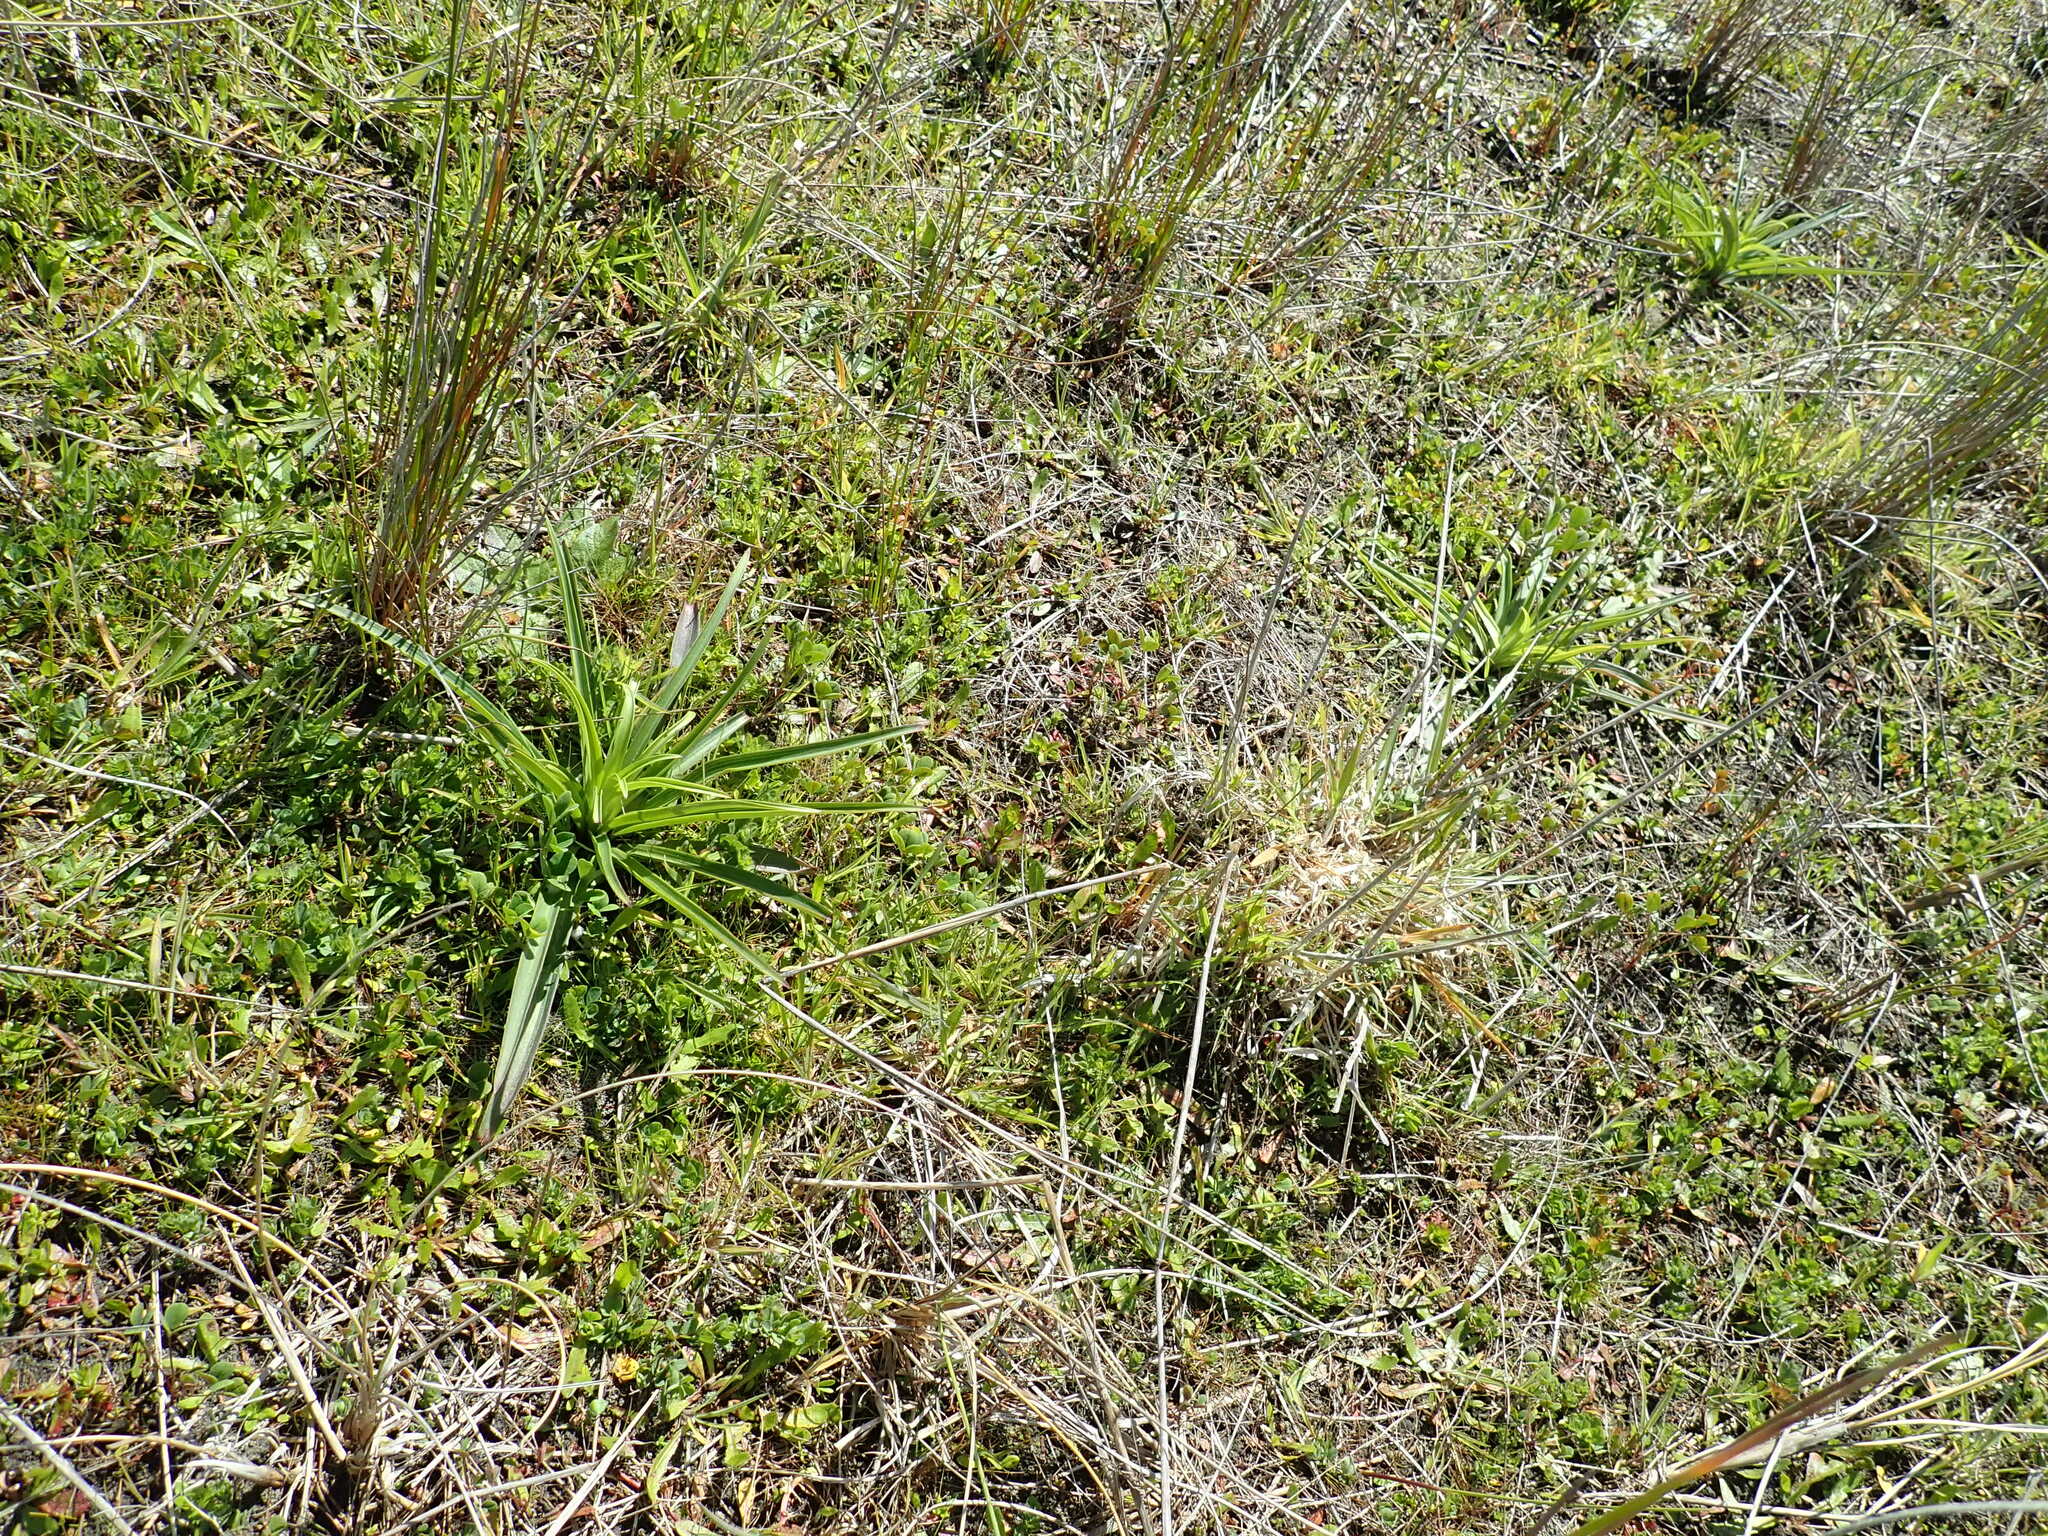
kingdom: Plantae
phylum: Tracheophyta
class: Liliopsida
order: Liliales
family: Liliaceae
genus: Lilium
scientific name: Lilium formosanum
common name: Formosa lily
